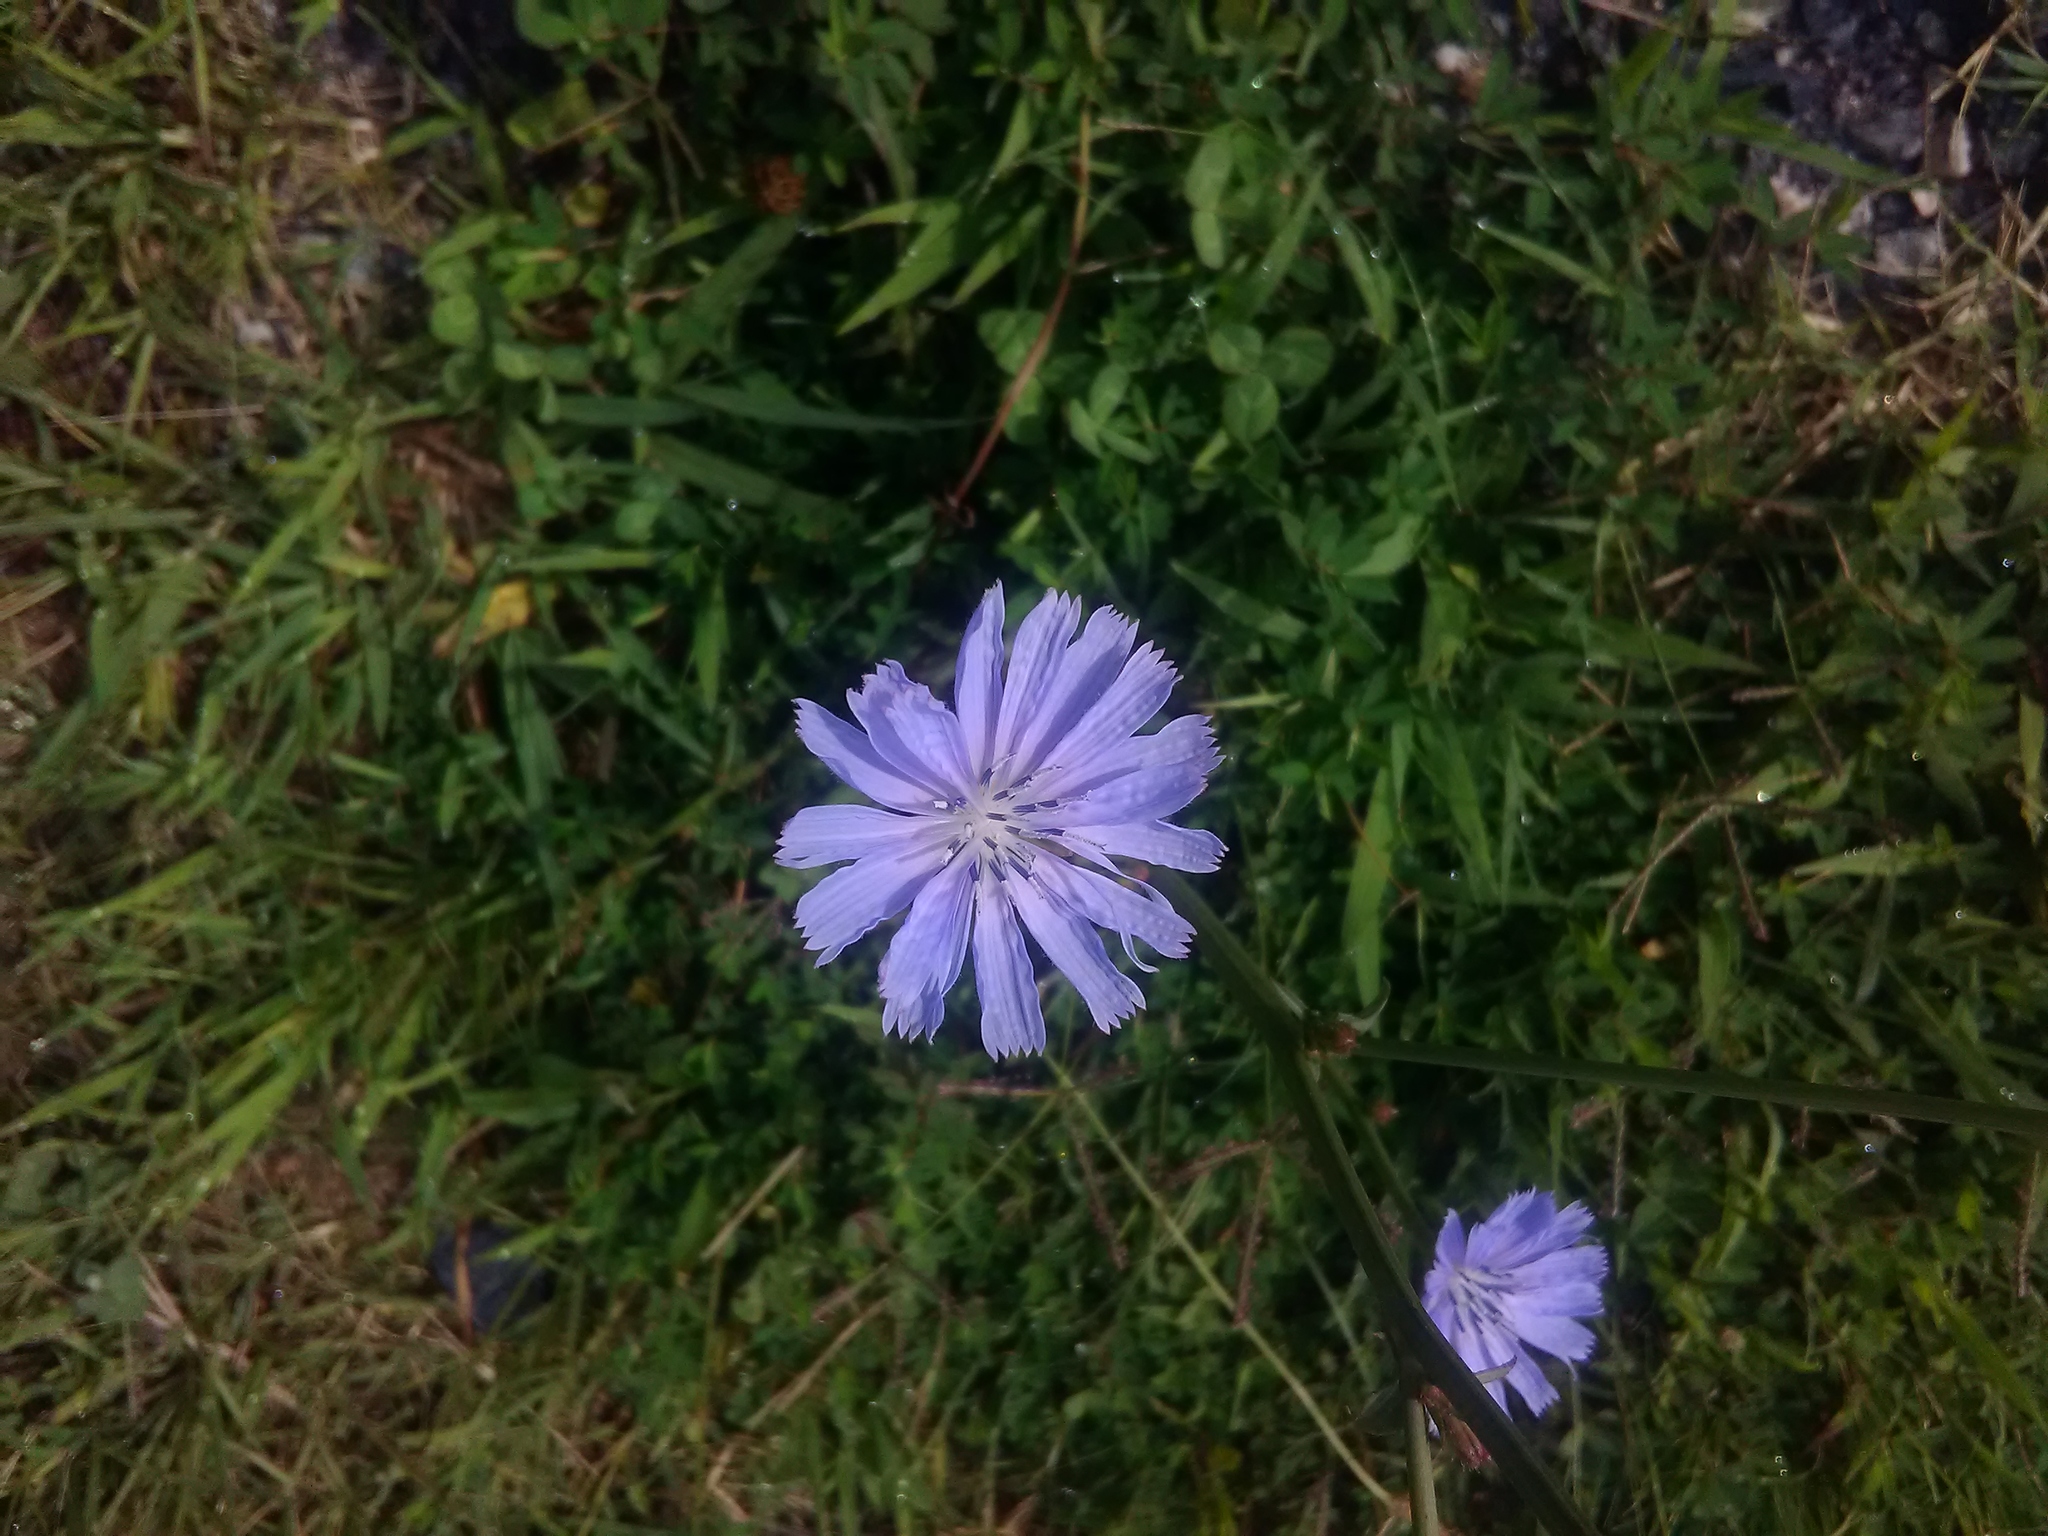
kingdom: Plantae
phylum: Tracheophyta
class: Magnoliopsida
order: Asterales
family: Asteraceae
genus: Cichorium
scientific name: Cichorium intybus
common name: Chicory
